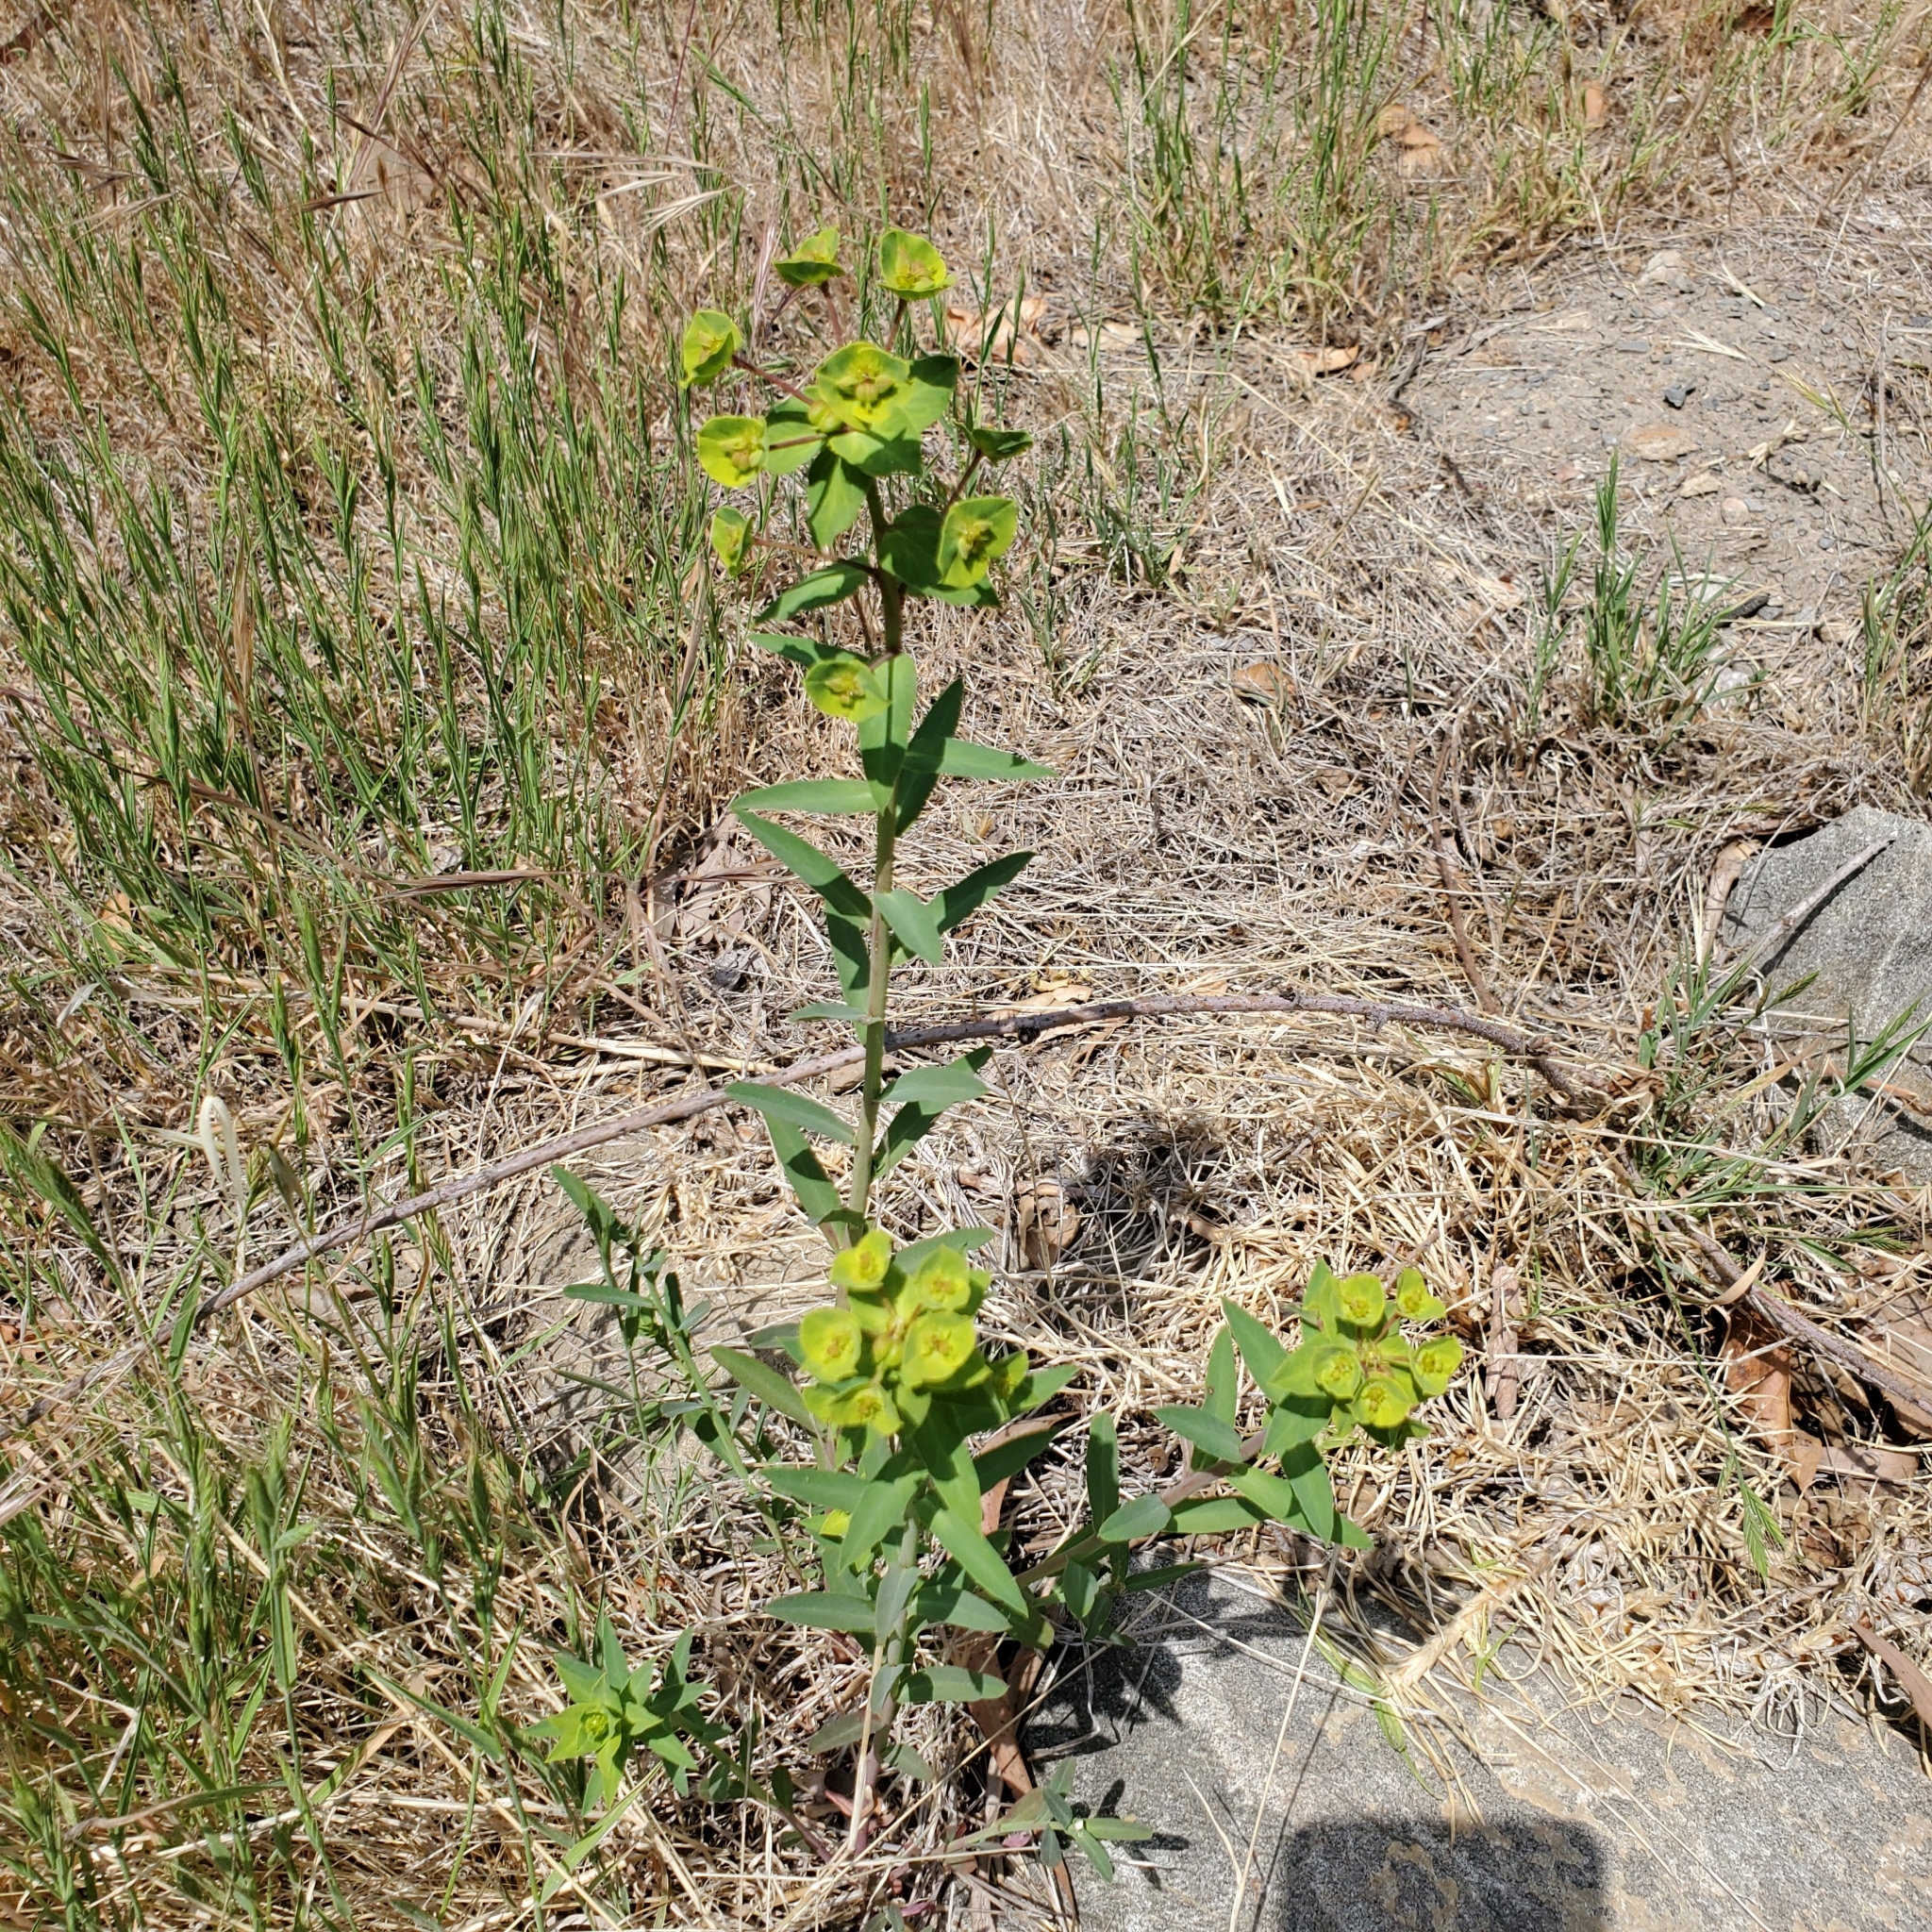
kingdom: Plantae
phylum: Tracheophyta
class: Magnoliopsida
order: Malpighiales
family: Euphorbiaceae
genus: Euphorbia
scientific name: Euphorbia terracina
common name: Geraldton carnation weed
